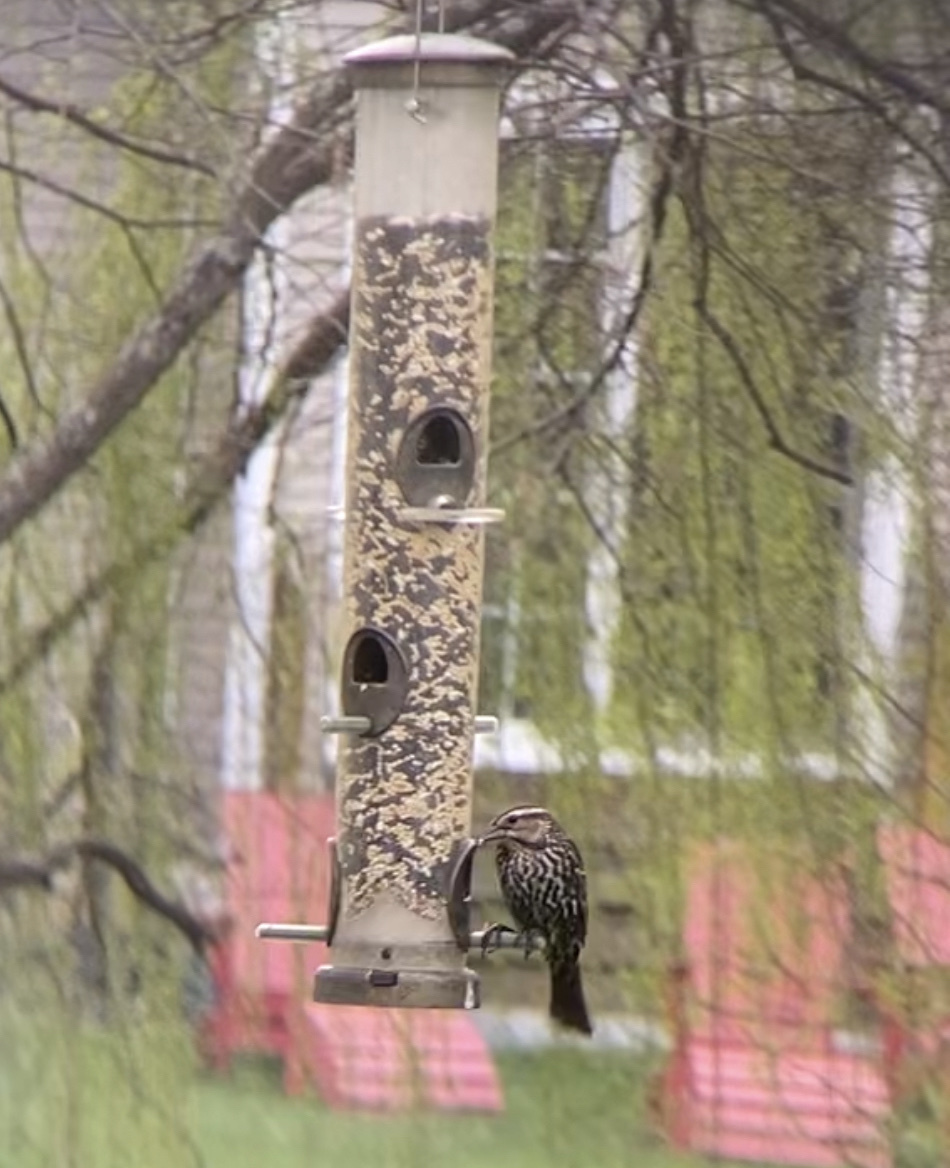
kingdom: Animalia
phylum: Chordata
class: Aves
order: Passeriformes
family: Icteridae
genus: Agelaius
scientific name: Agelaius phoeniceus
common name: Red-winged blackbird
